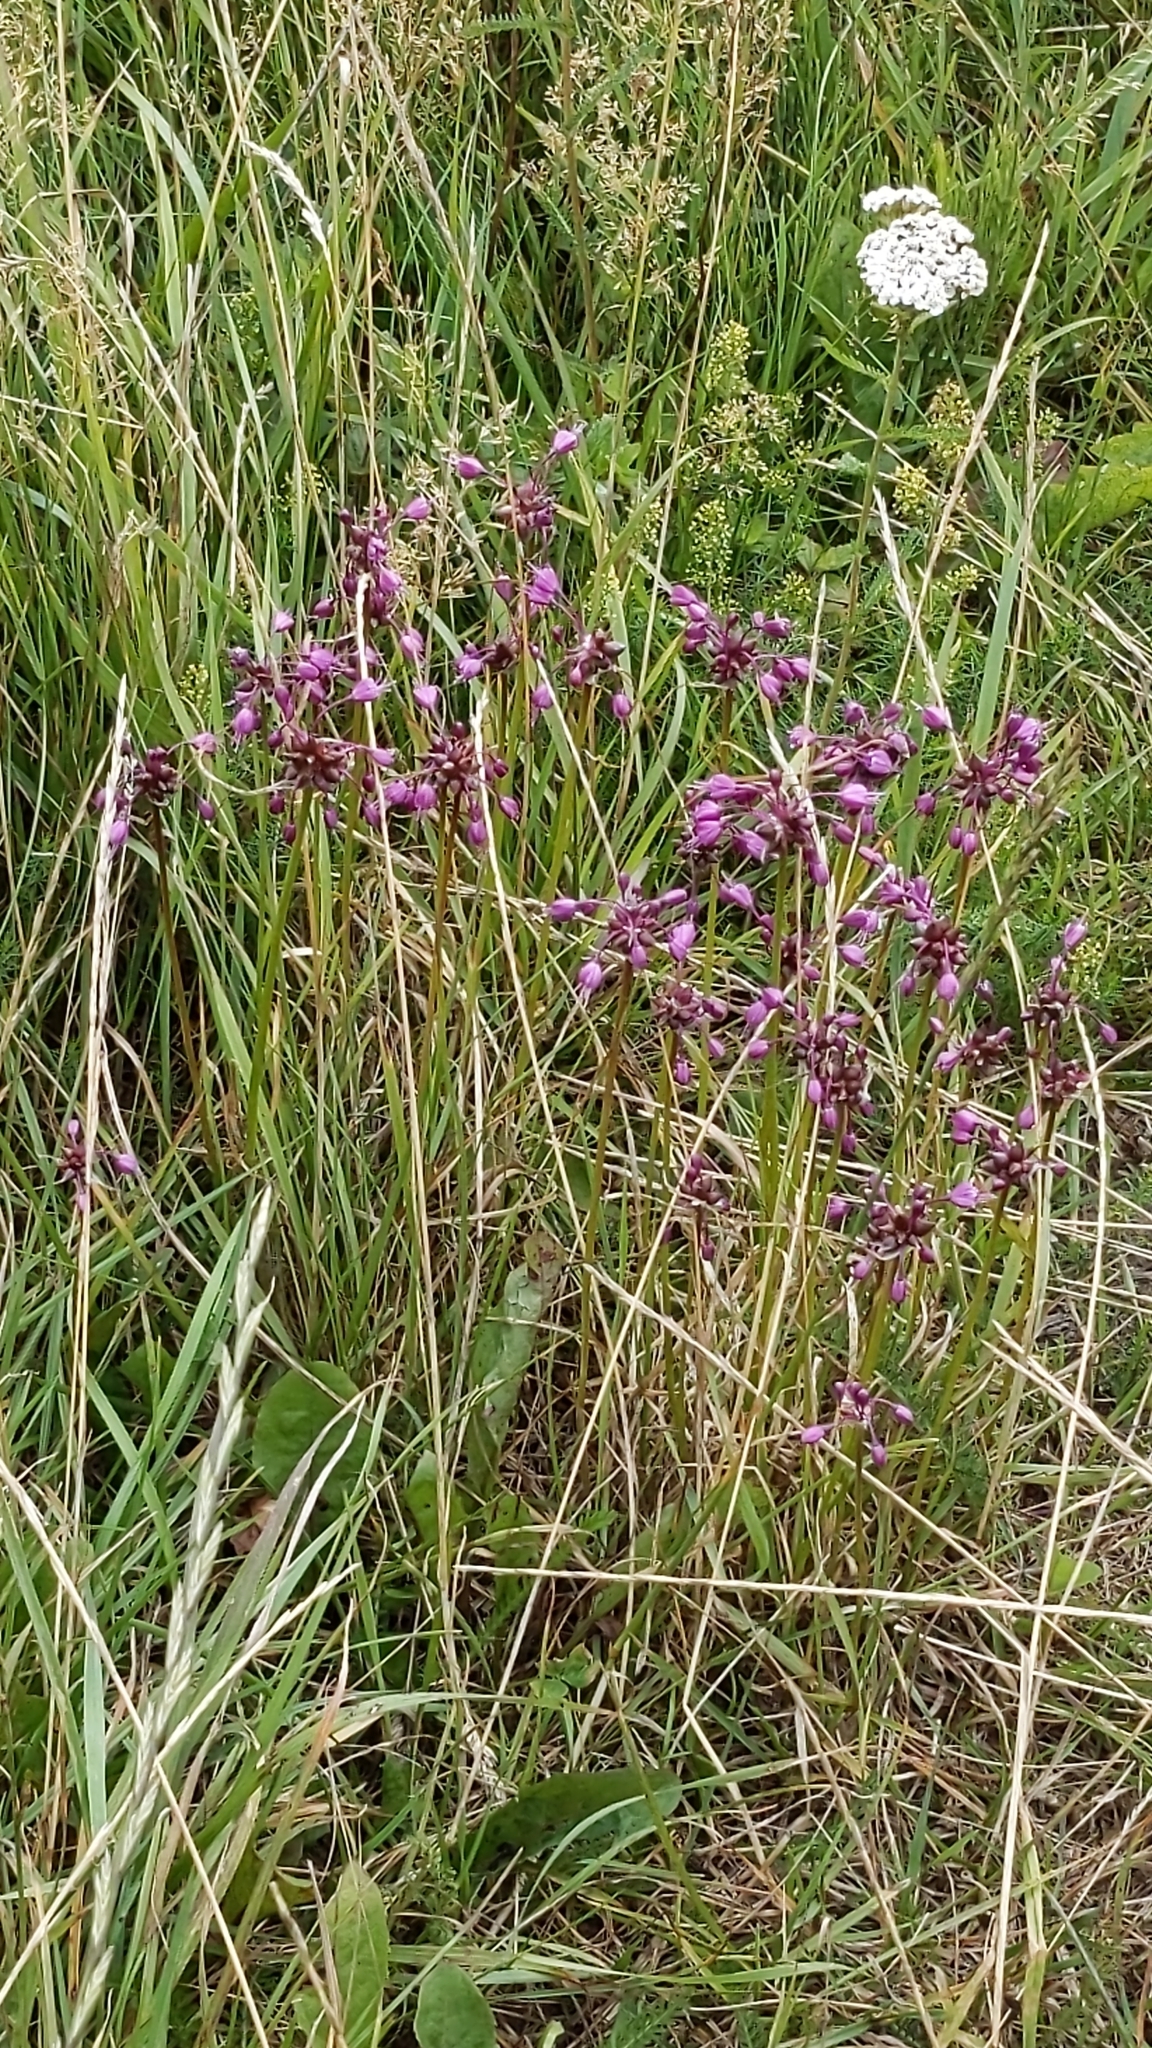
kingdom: Plantae
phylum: Tracheophyta
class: Liliopsida
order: Asparagales
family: Amaryllidaceae
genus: Allium
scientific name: Allium carinatum
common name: Keeled garlic
